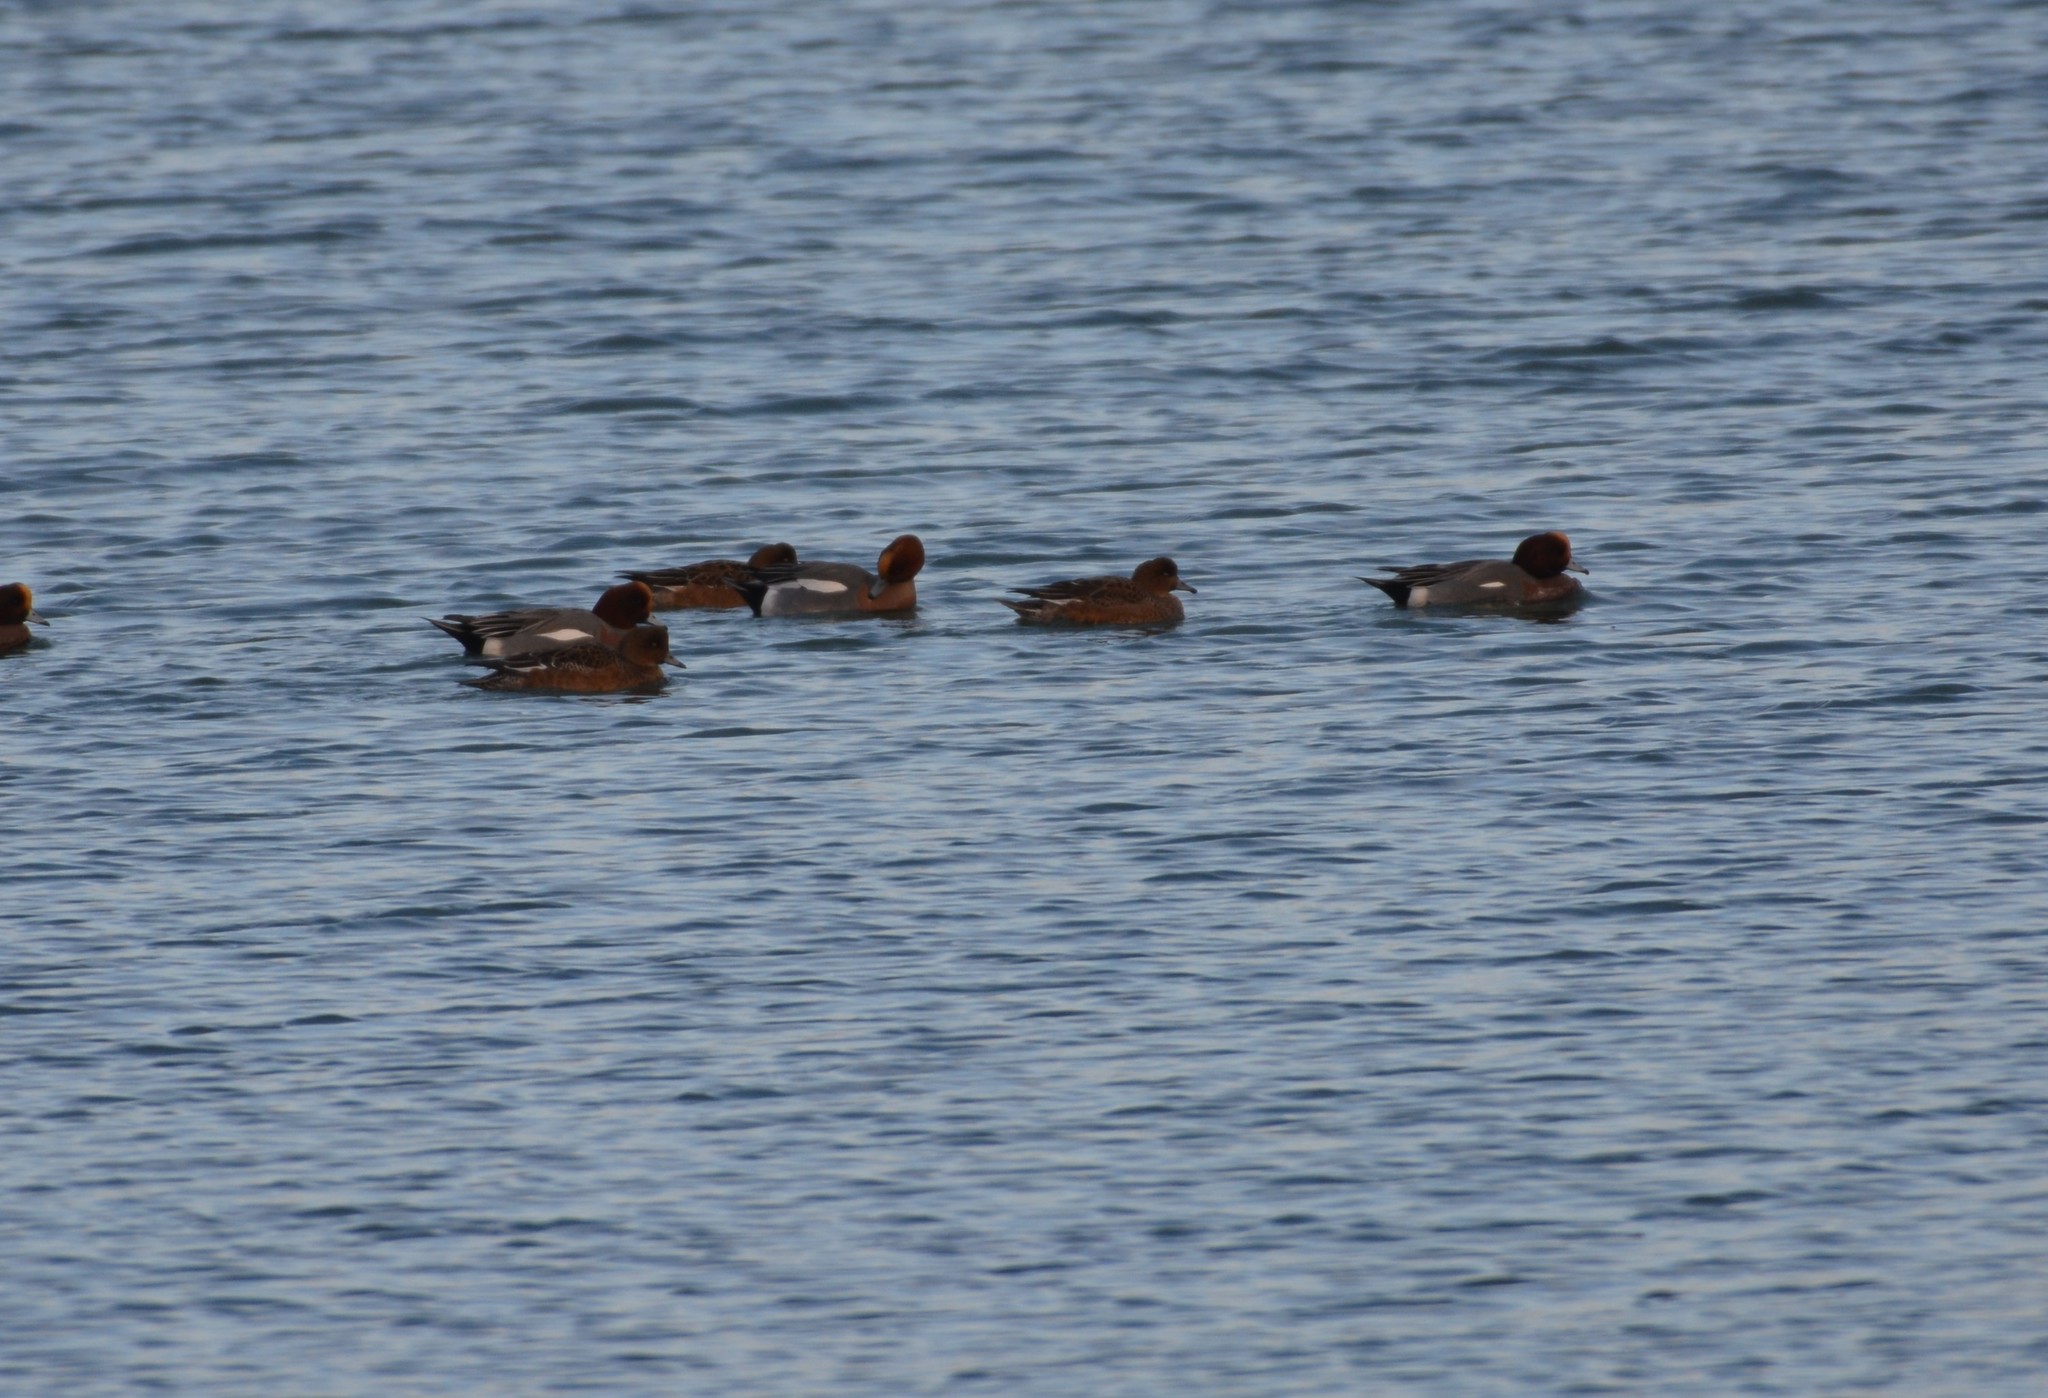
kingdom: Animalia
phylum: Chordata
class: Aves
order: Anseriformes
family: Anatidae
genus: Mareca
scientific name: Mareca penelope
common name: Eurasian wigeon
